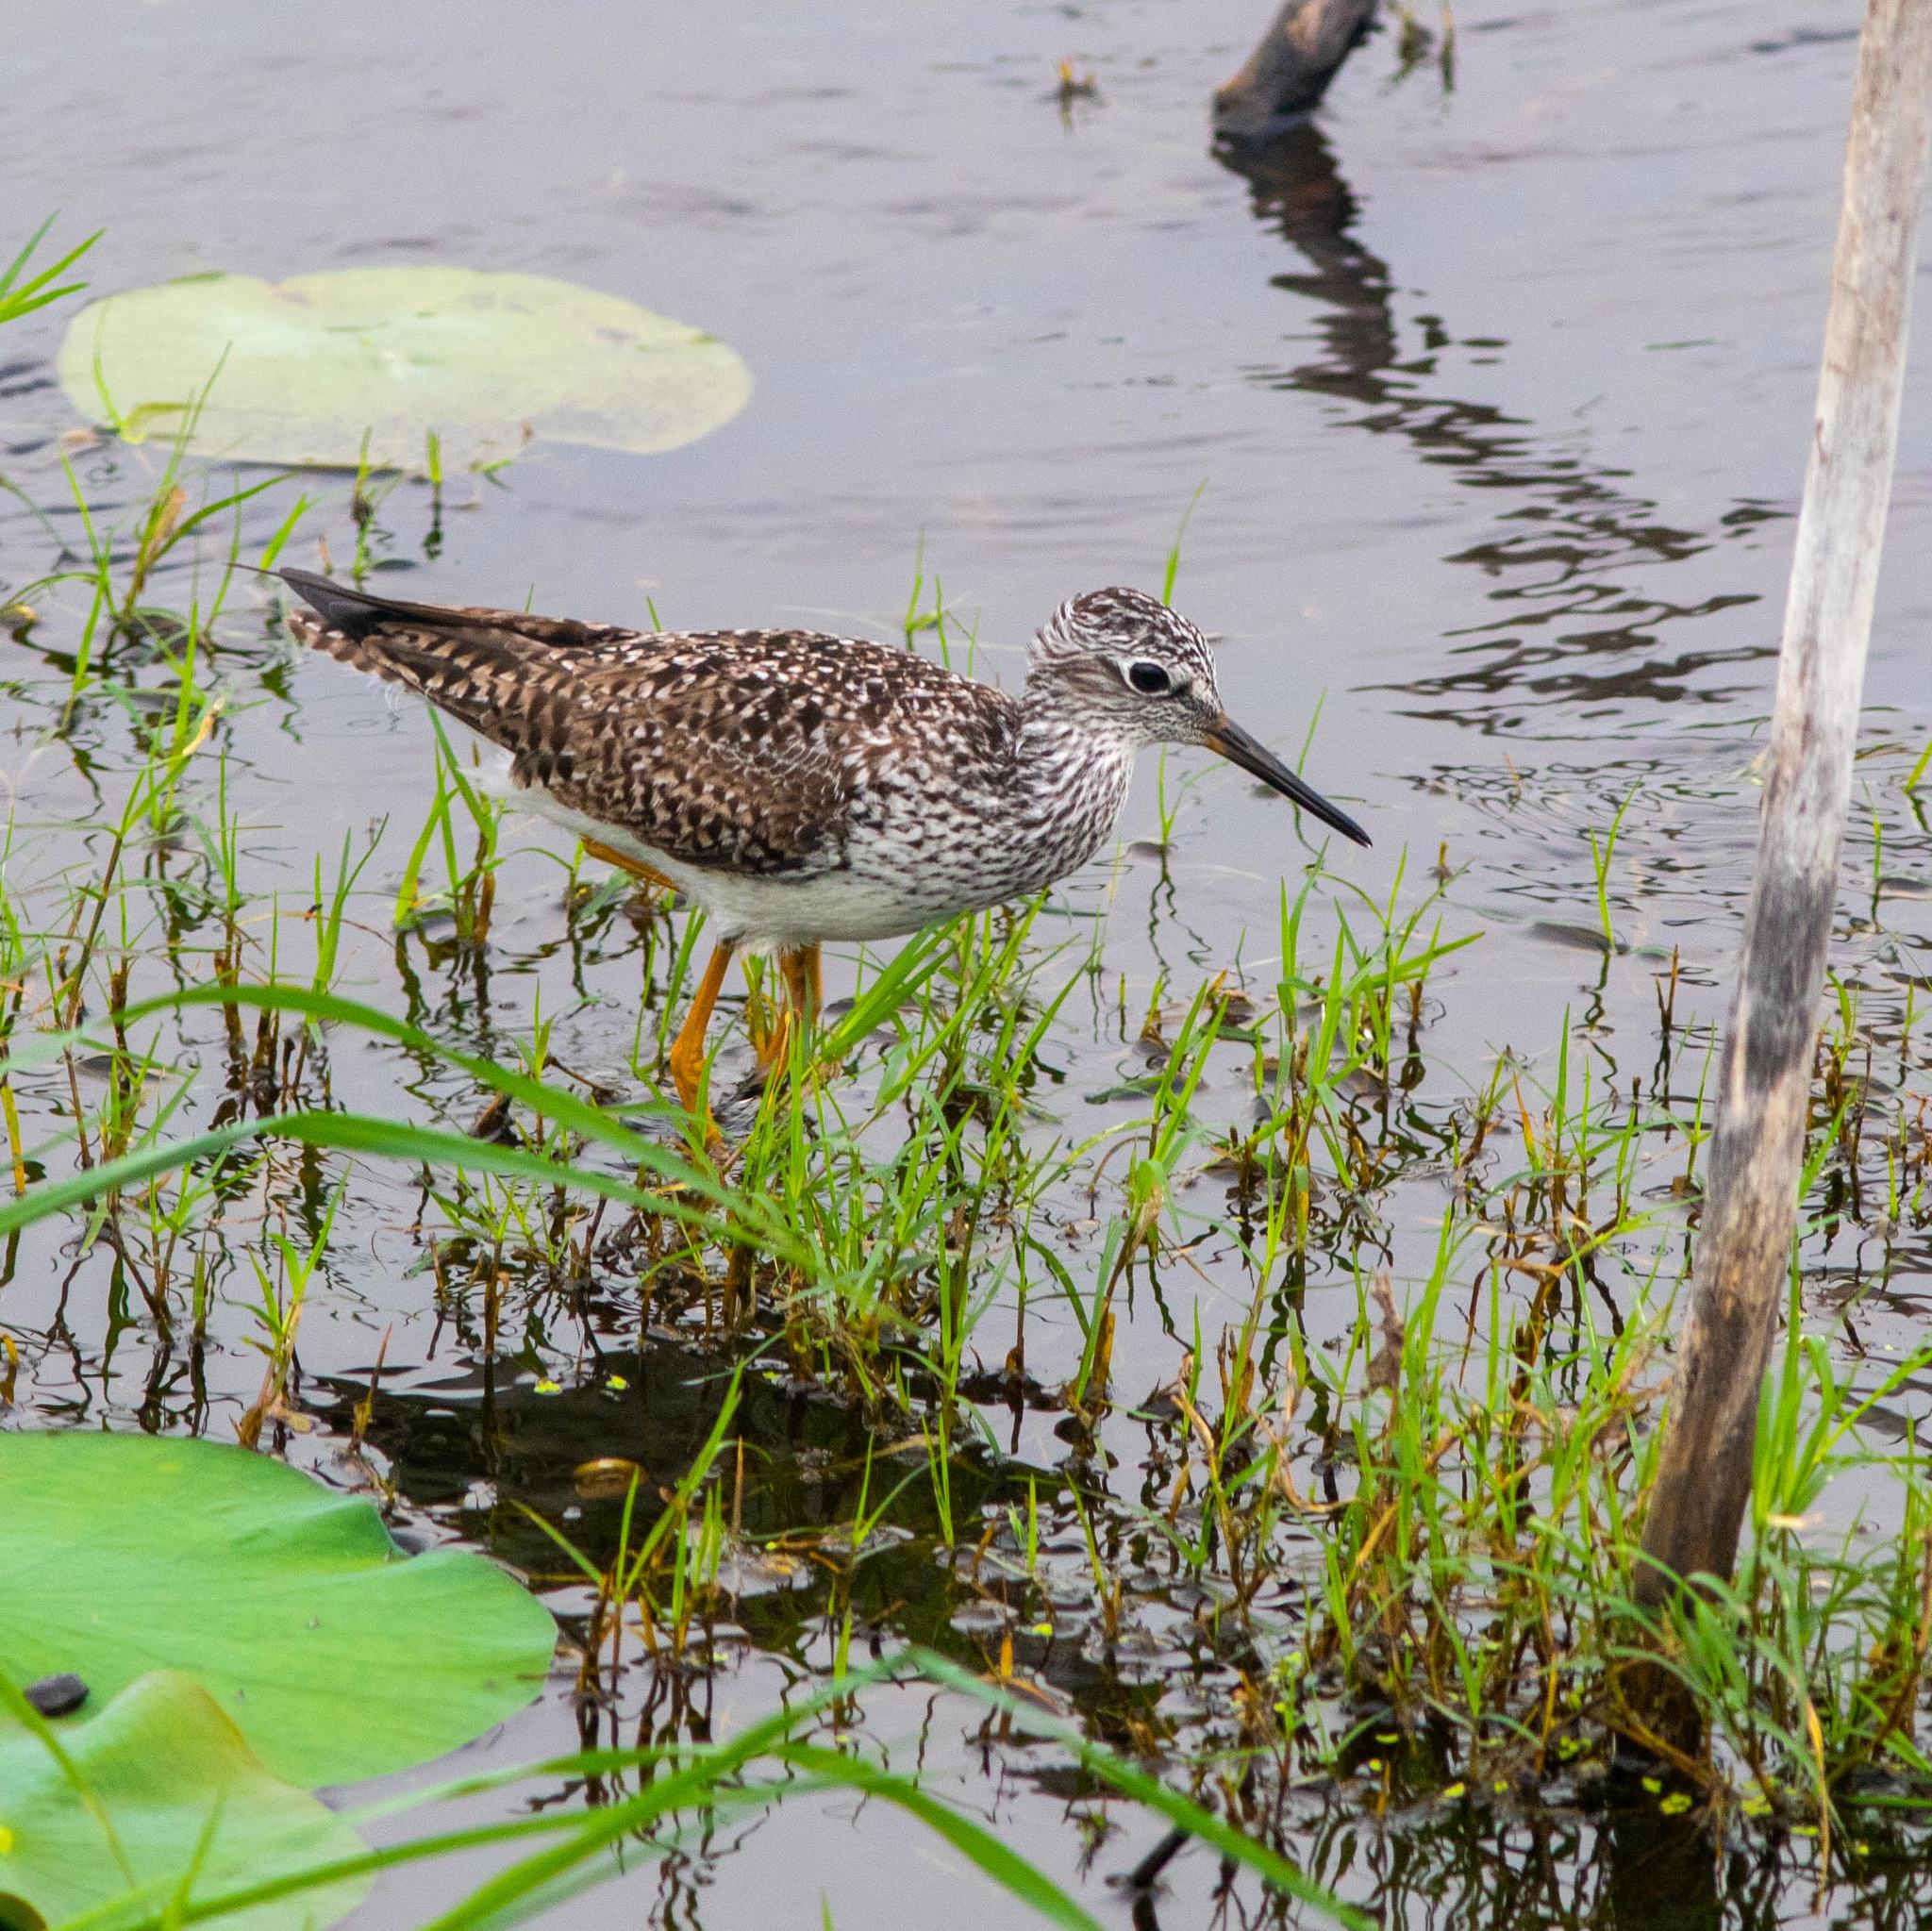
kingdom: Animalia
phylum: Chordata
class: Aves
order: Charadriiformes
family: Scolopacidae
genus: Tringa
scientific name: Tringa flavipes
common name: Lesser yellowlegs
